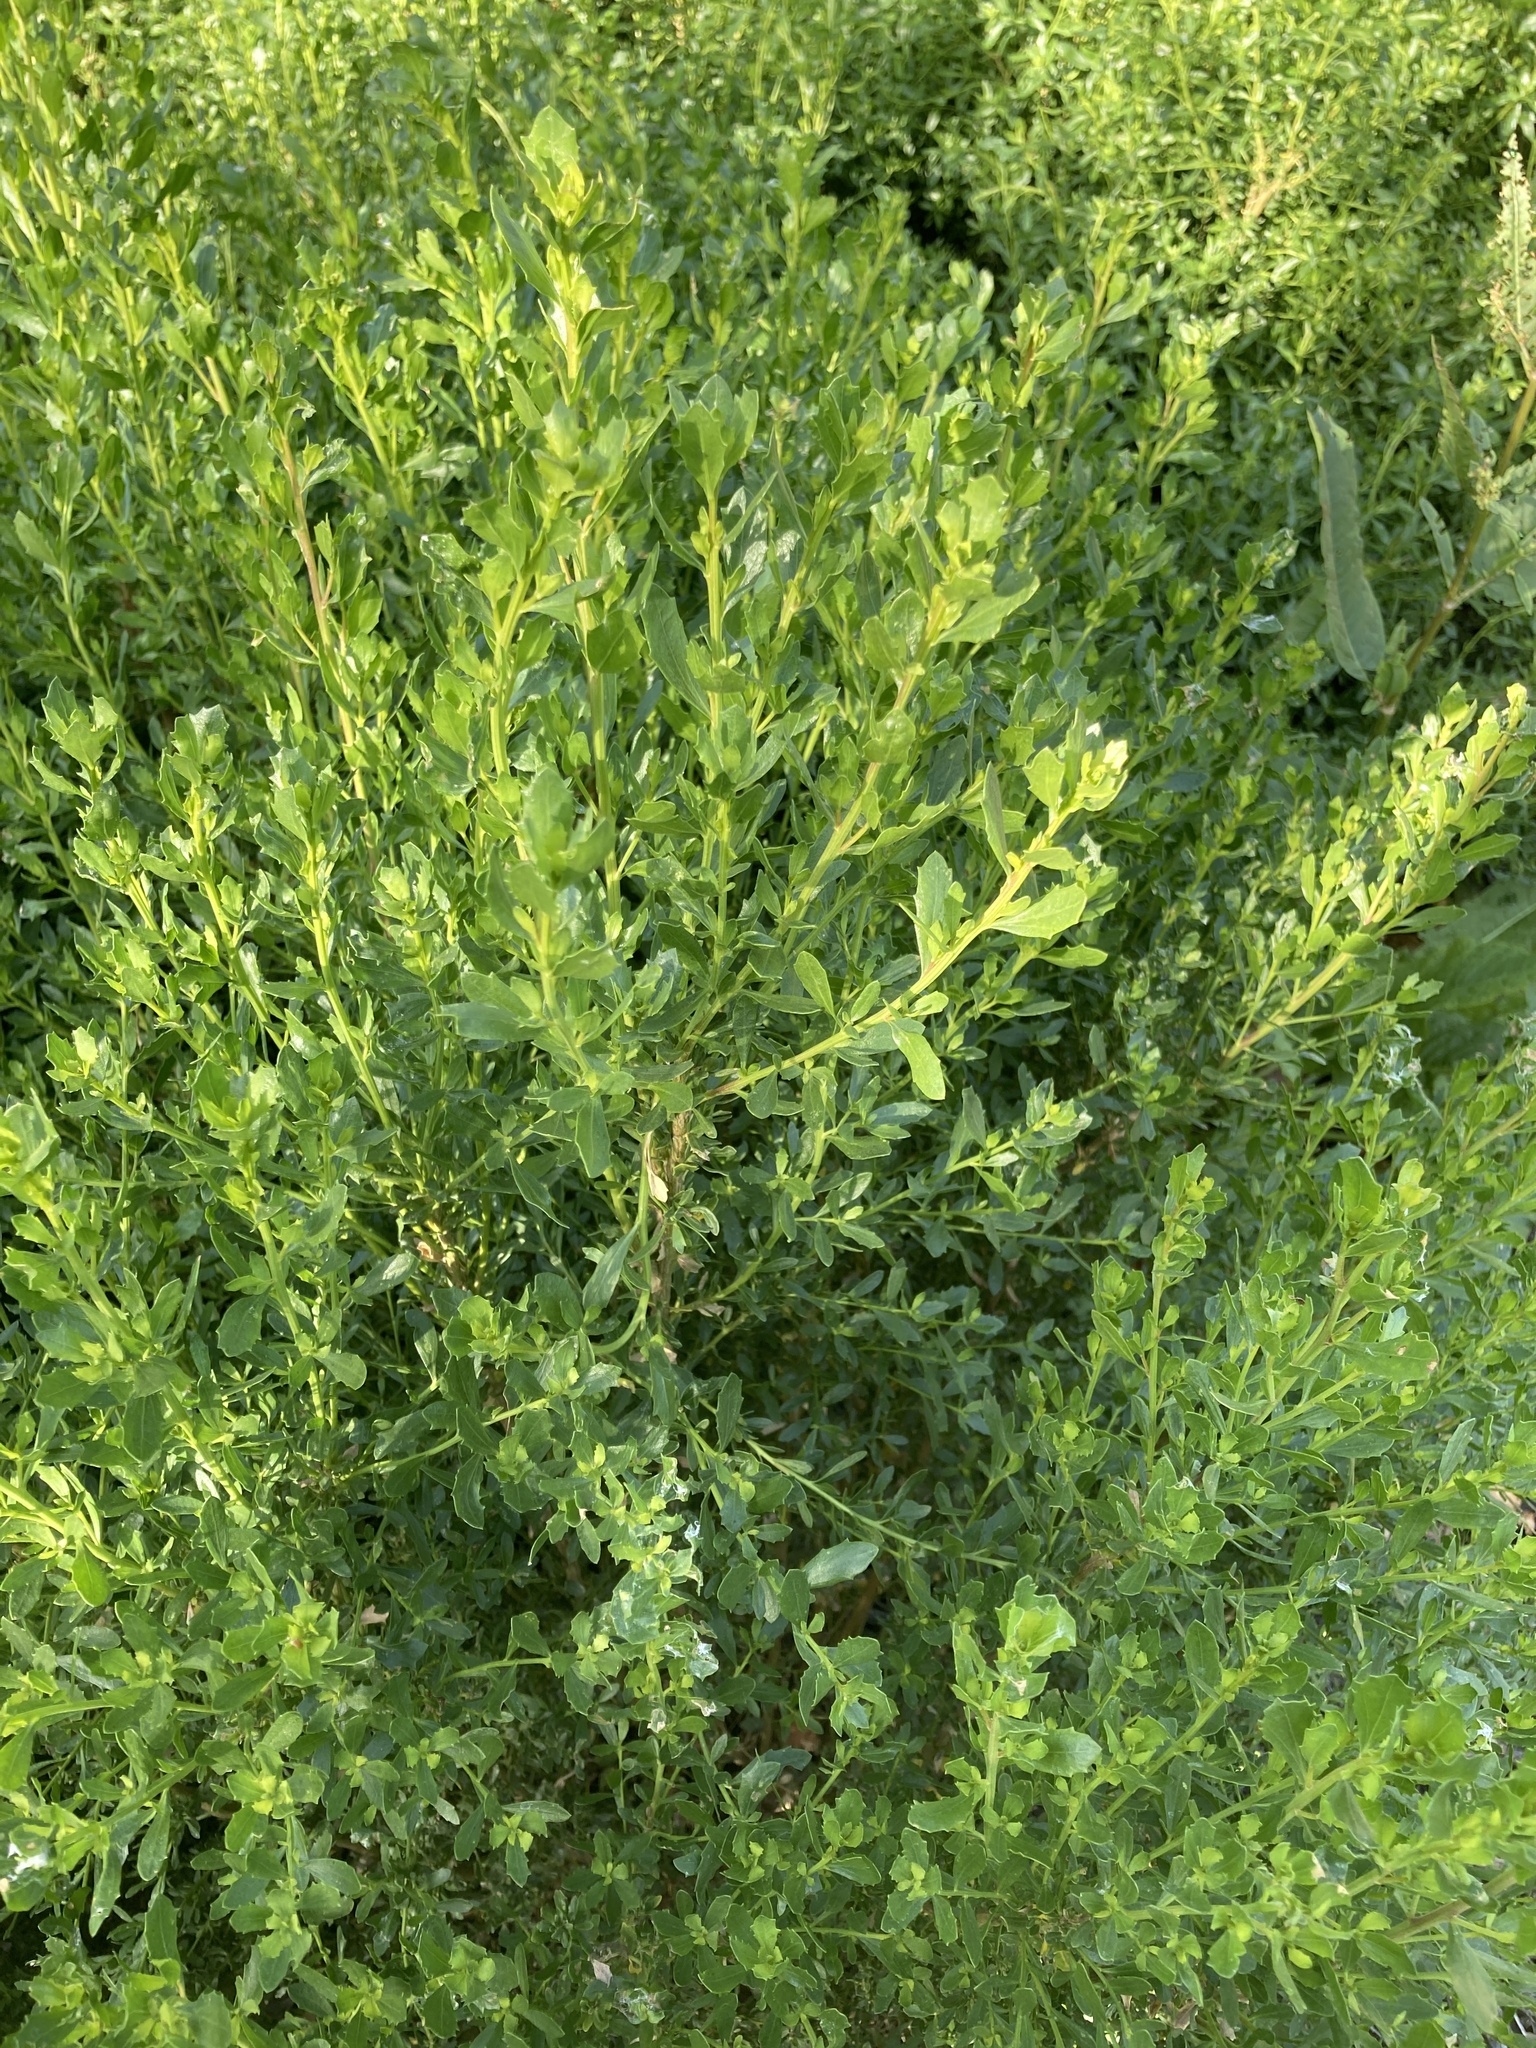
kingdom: Plantae
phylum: Tracheophyta
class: Magnoliopsida
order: Asterales
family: Asteraceae
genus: Baccharis
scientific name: Baccharis pilularis
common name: Coyotebrush
